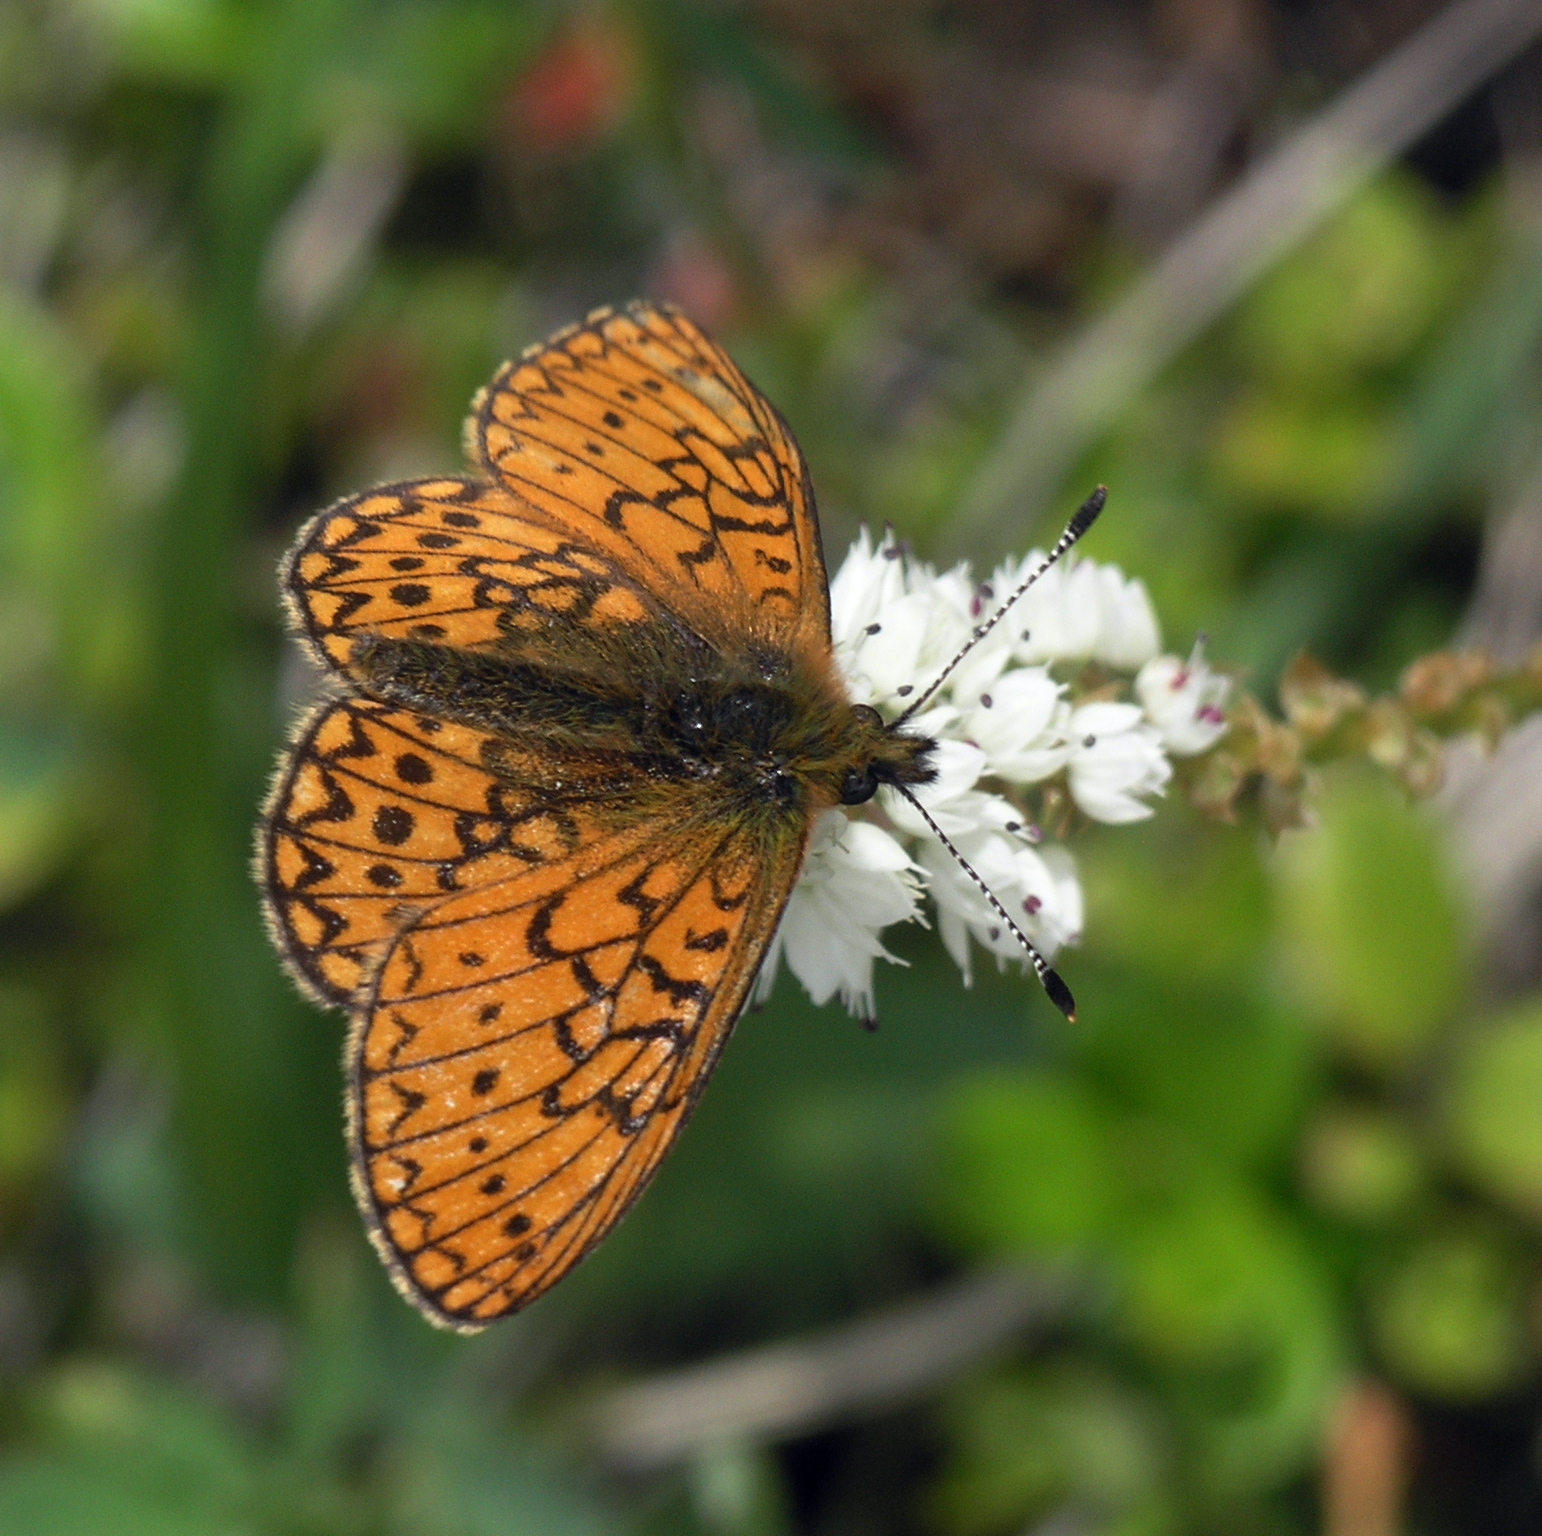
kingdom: Animalia
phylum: Arthropoda
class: Insecta
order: Lepidoptera
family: Nymphalidae
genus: Boloria
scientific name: Boloria eunomia
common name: Bog fritillary
